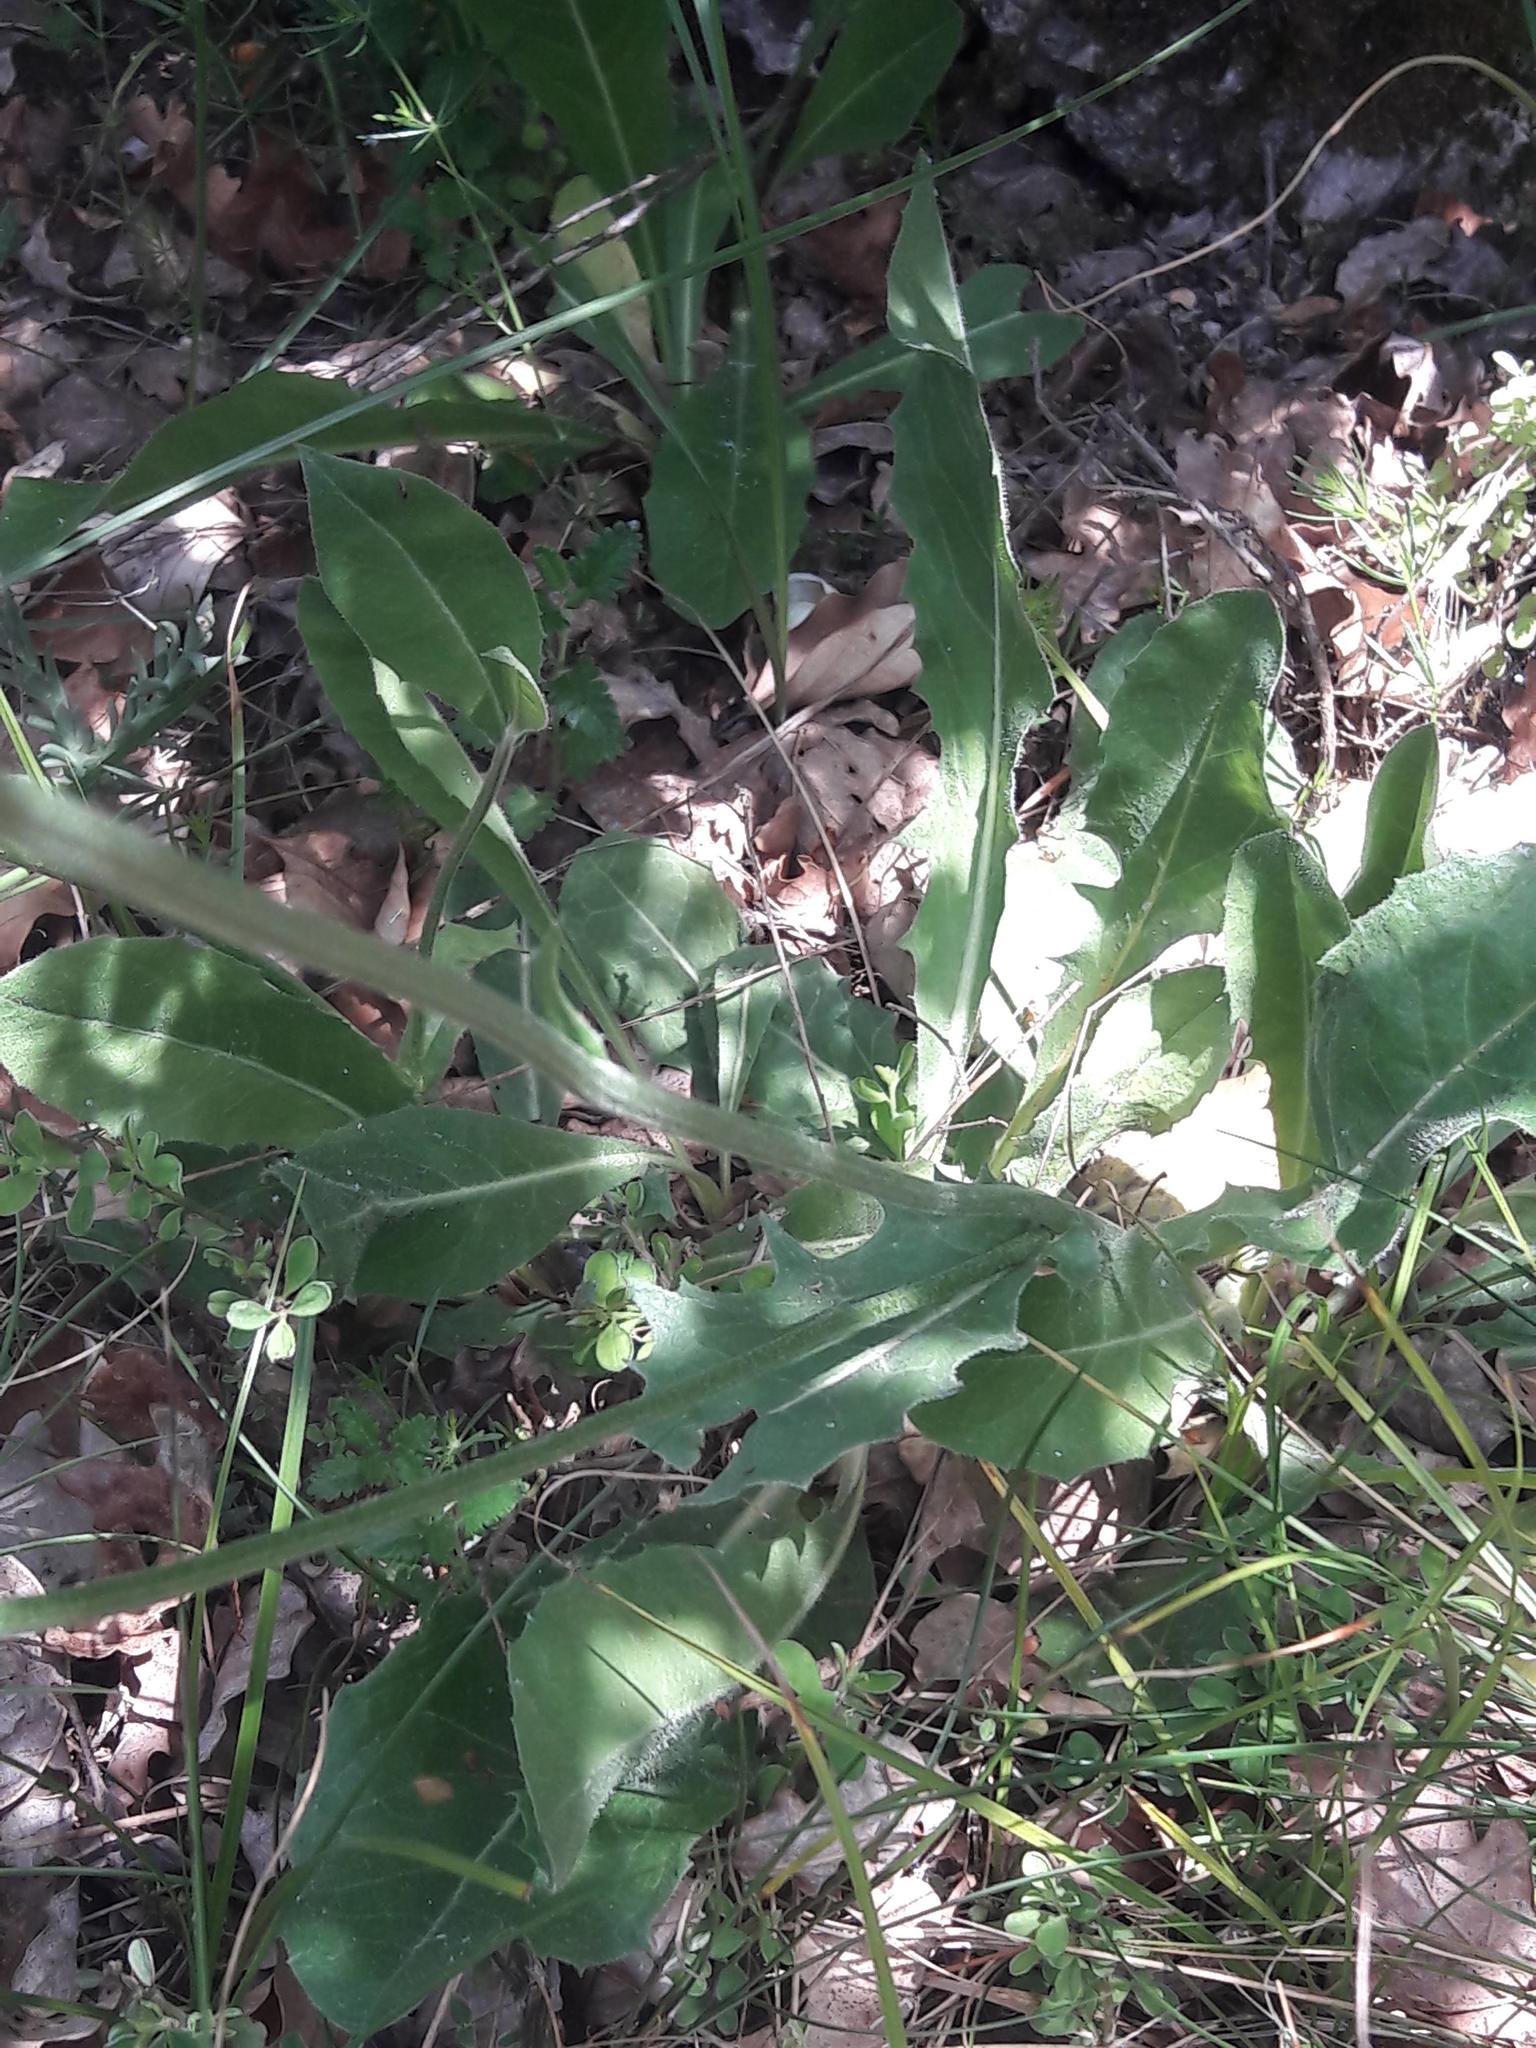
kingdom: Plantae
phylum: Tracheophyta
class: Magnoliopsida
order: Asterales
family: Asteraceae
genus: Crepis
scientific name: Crepis albida
